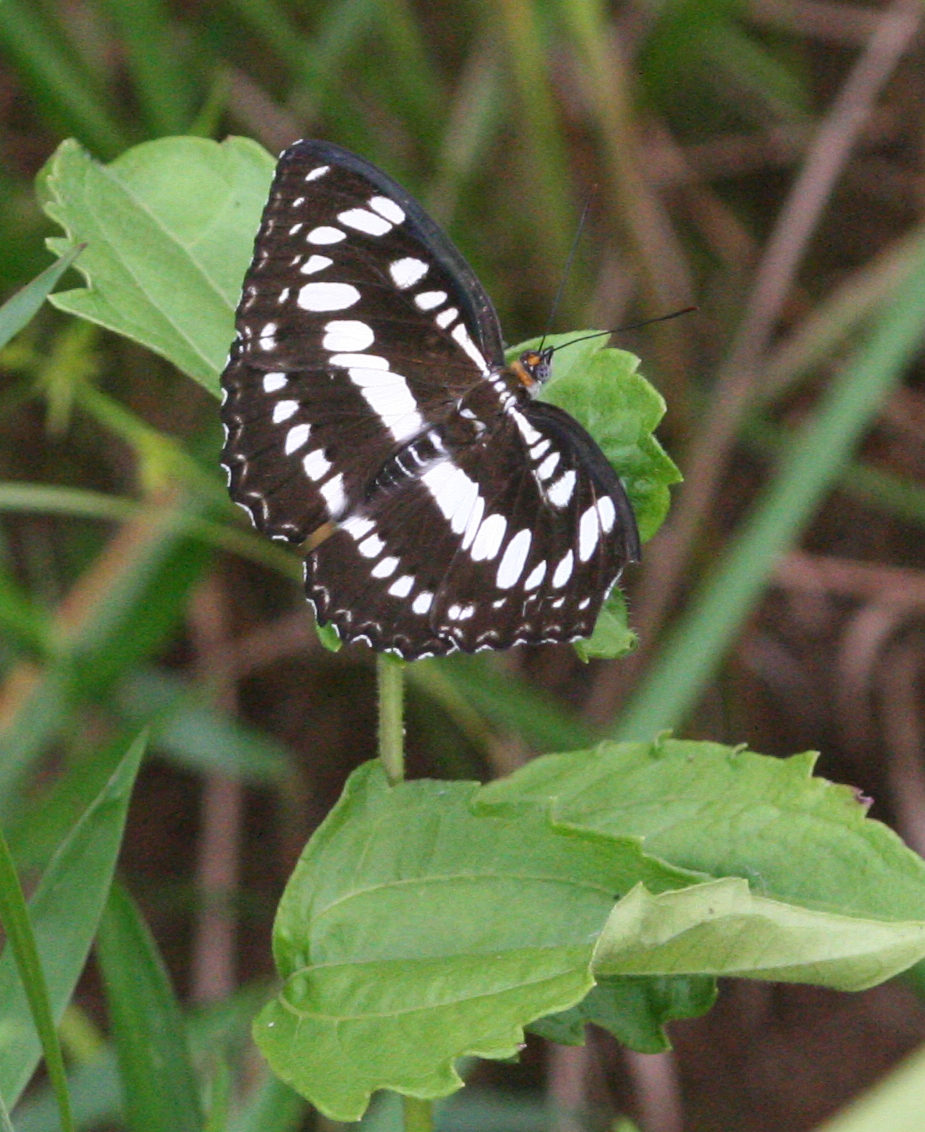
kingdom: Animalia
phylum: Arthropoda
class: Insecta
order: Lepidoptera
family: Nymphalidae
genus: Parathyma
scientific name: Parathyma perius
